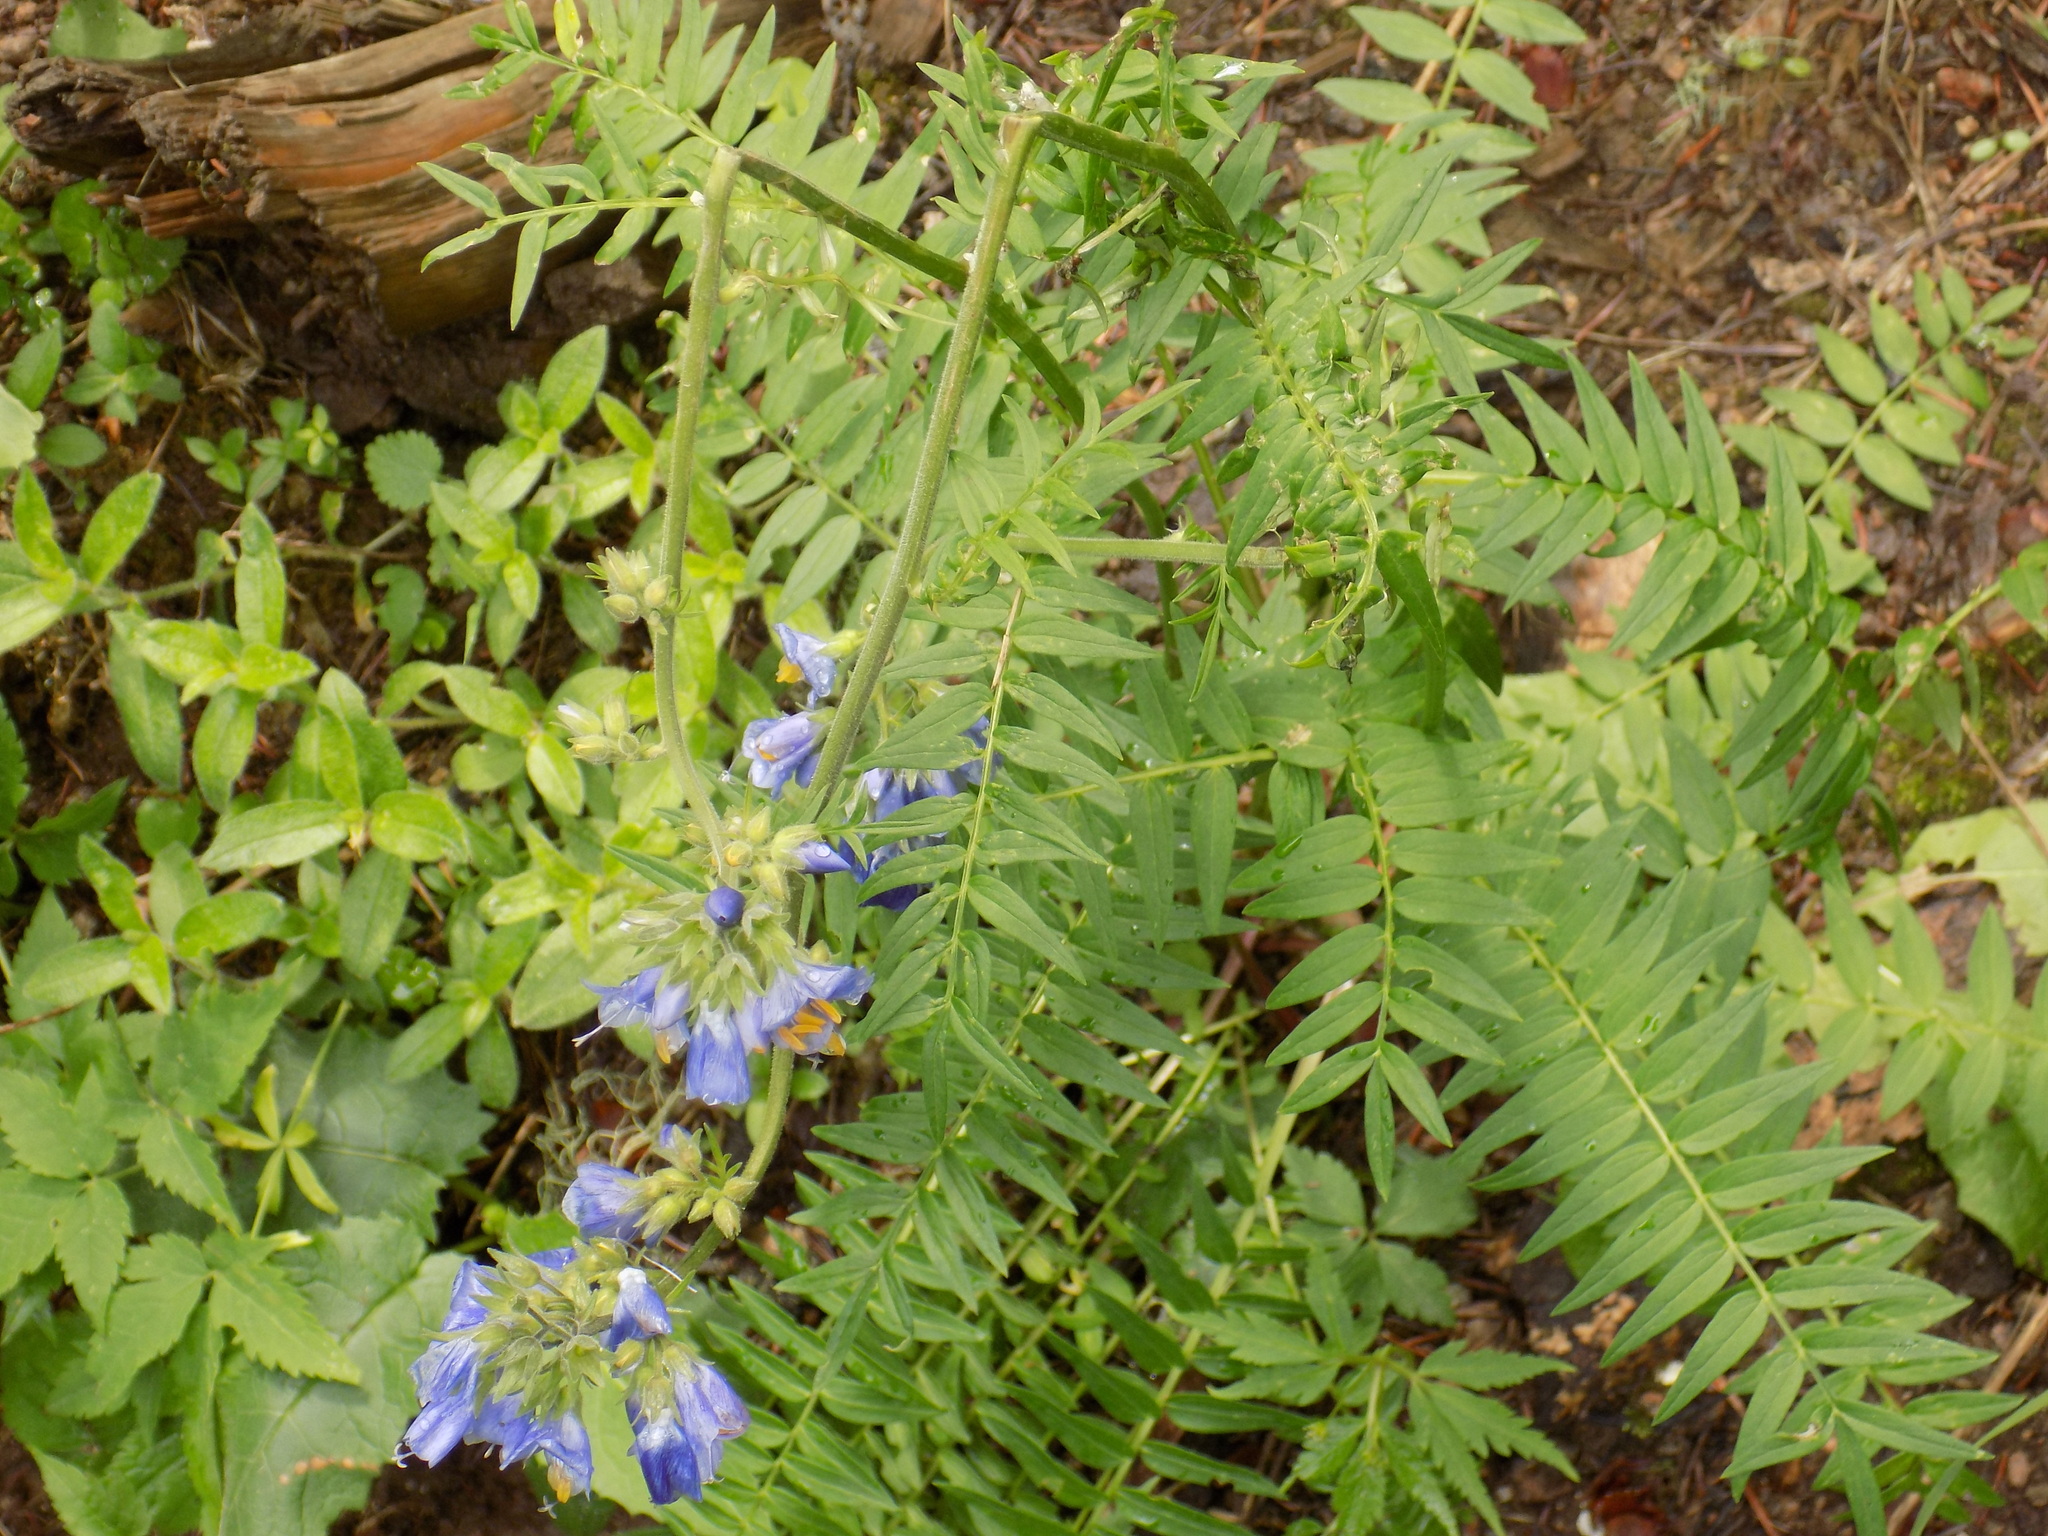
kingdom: Plantae
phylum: Tracheophyta
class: Magnoliopsida
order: Ericales
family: Polemoniaceae
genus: Polemonium
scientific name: Polemonium caeruleum
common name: Jacob's-ladder
